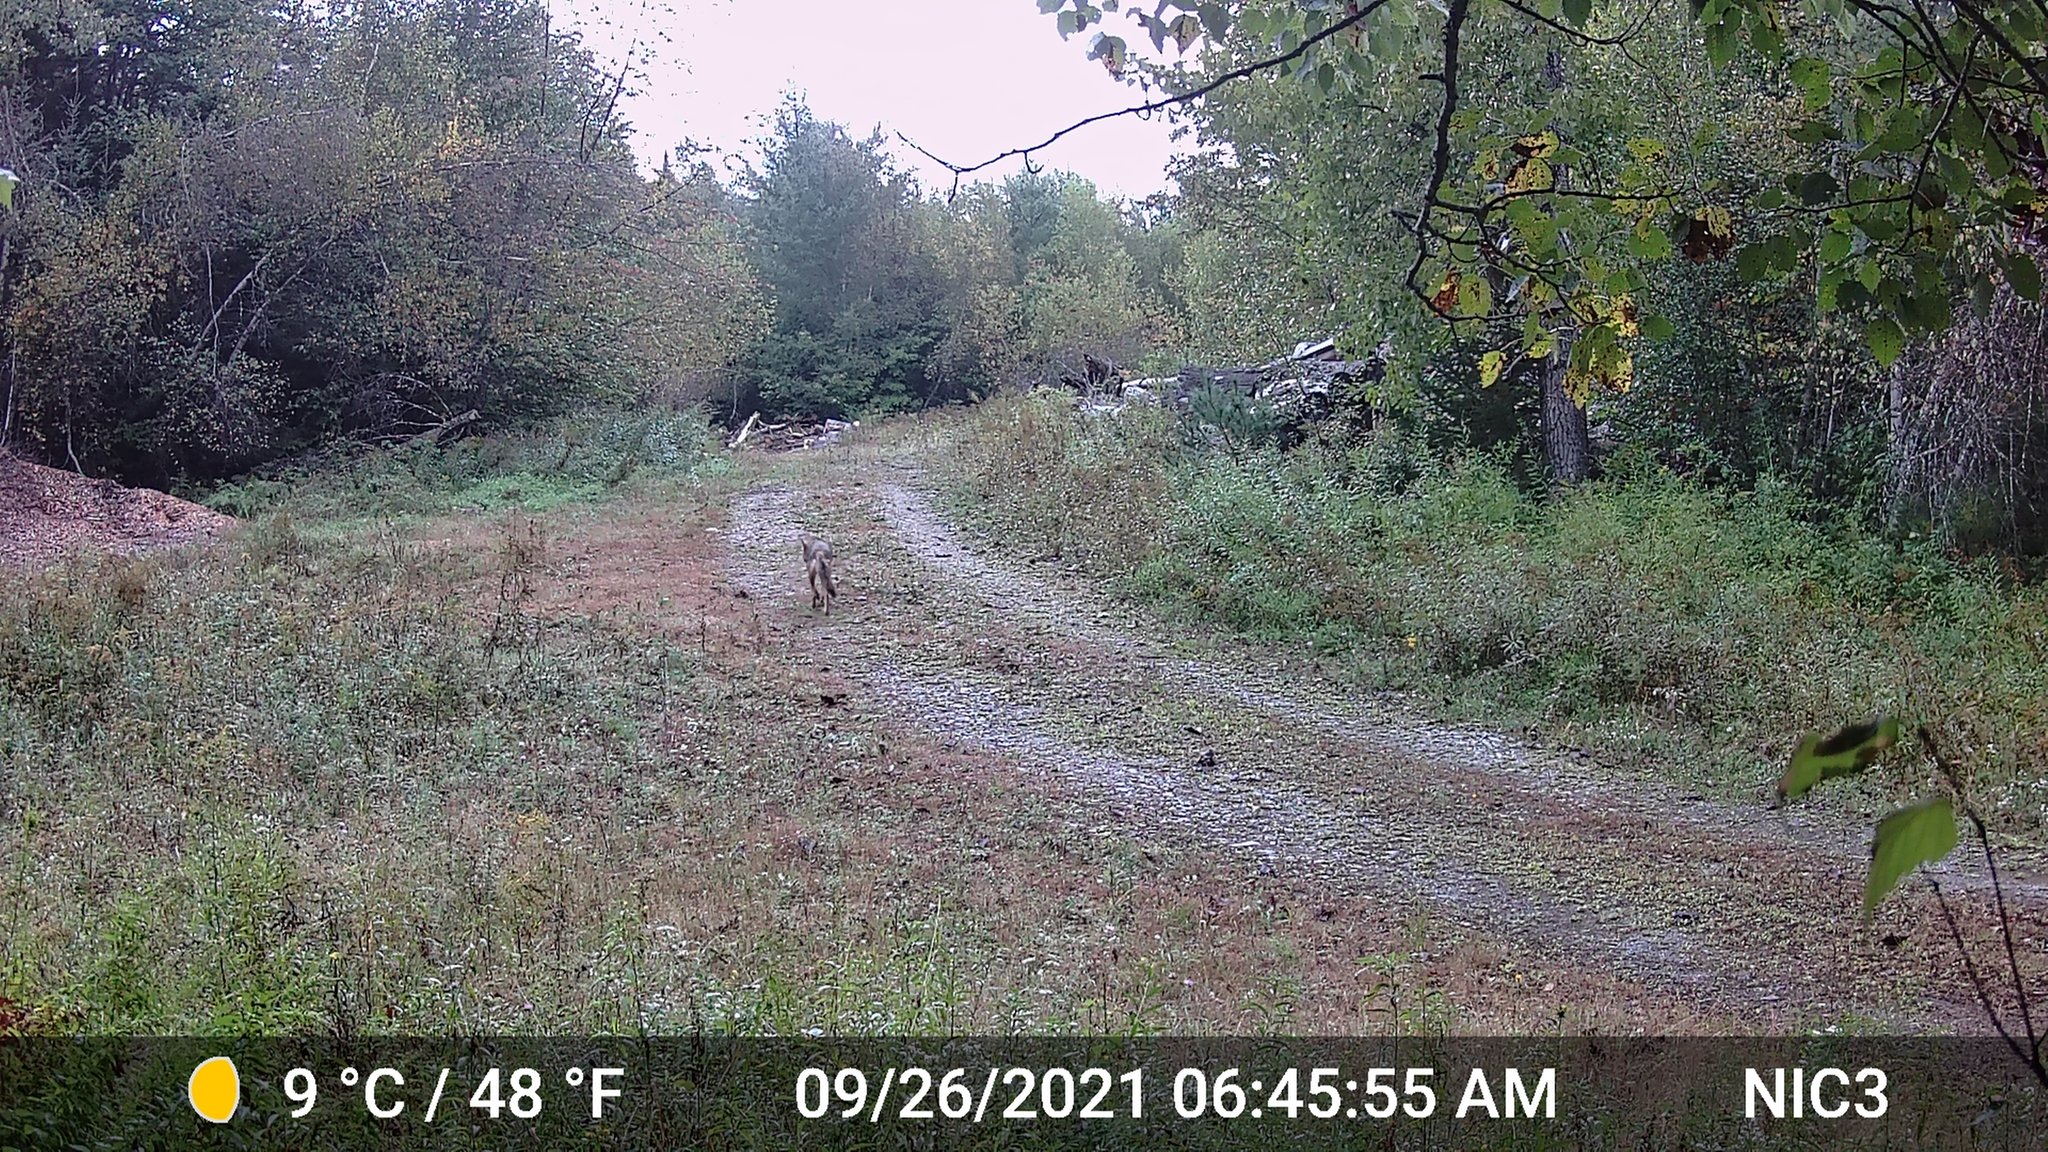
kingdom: Animalia
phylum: Chordata
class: Mammalia
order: Carnivora
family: Canidae
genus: Canis
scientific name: Canis latrans
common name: Coyote
